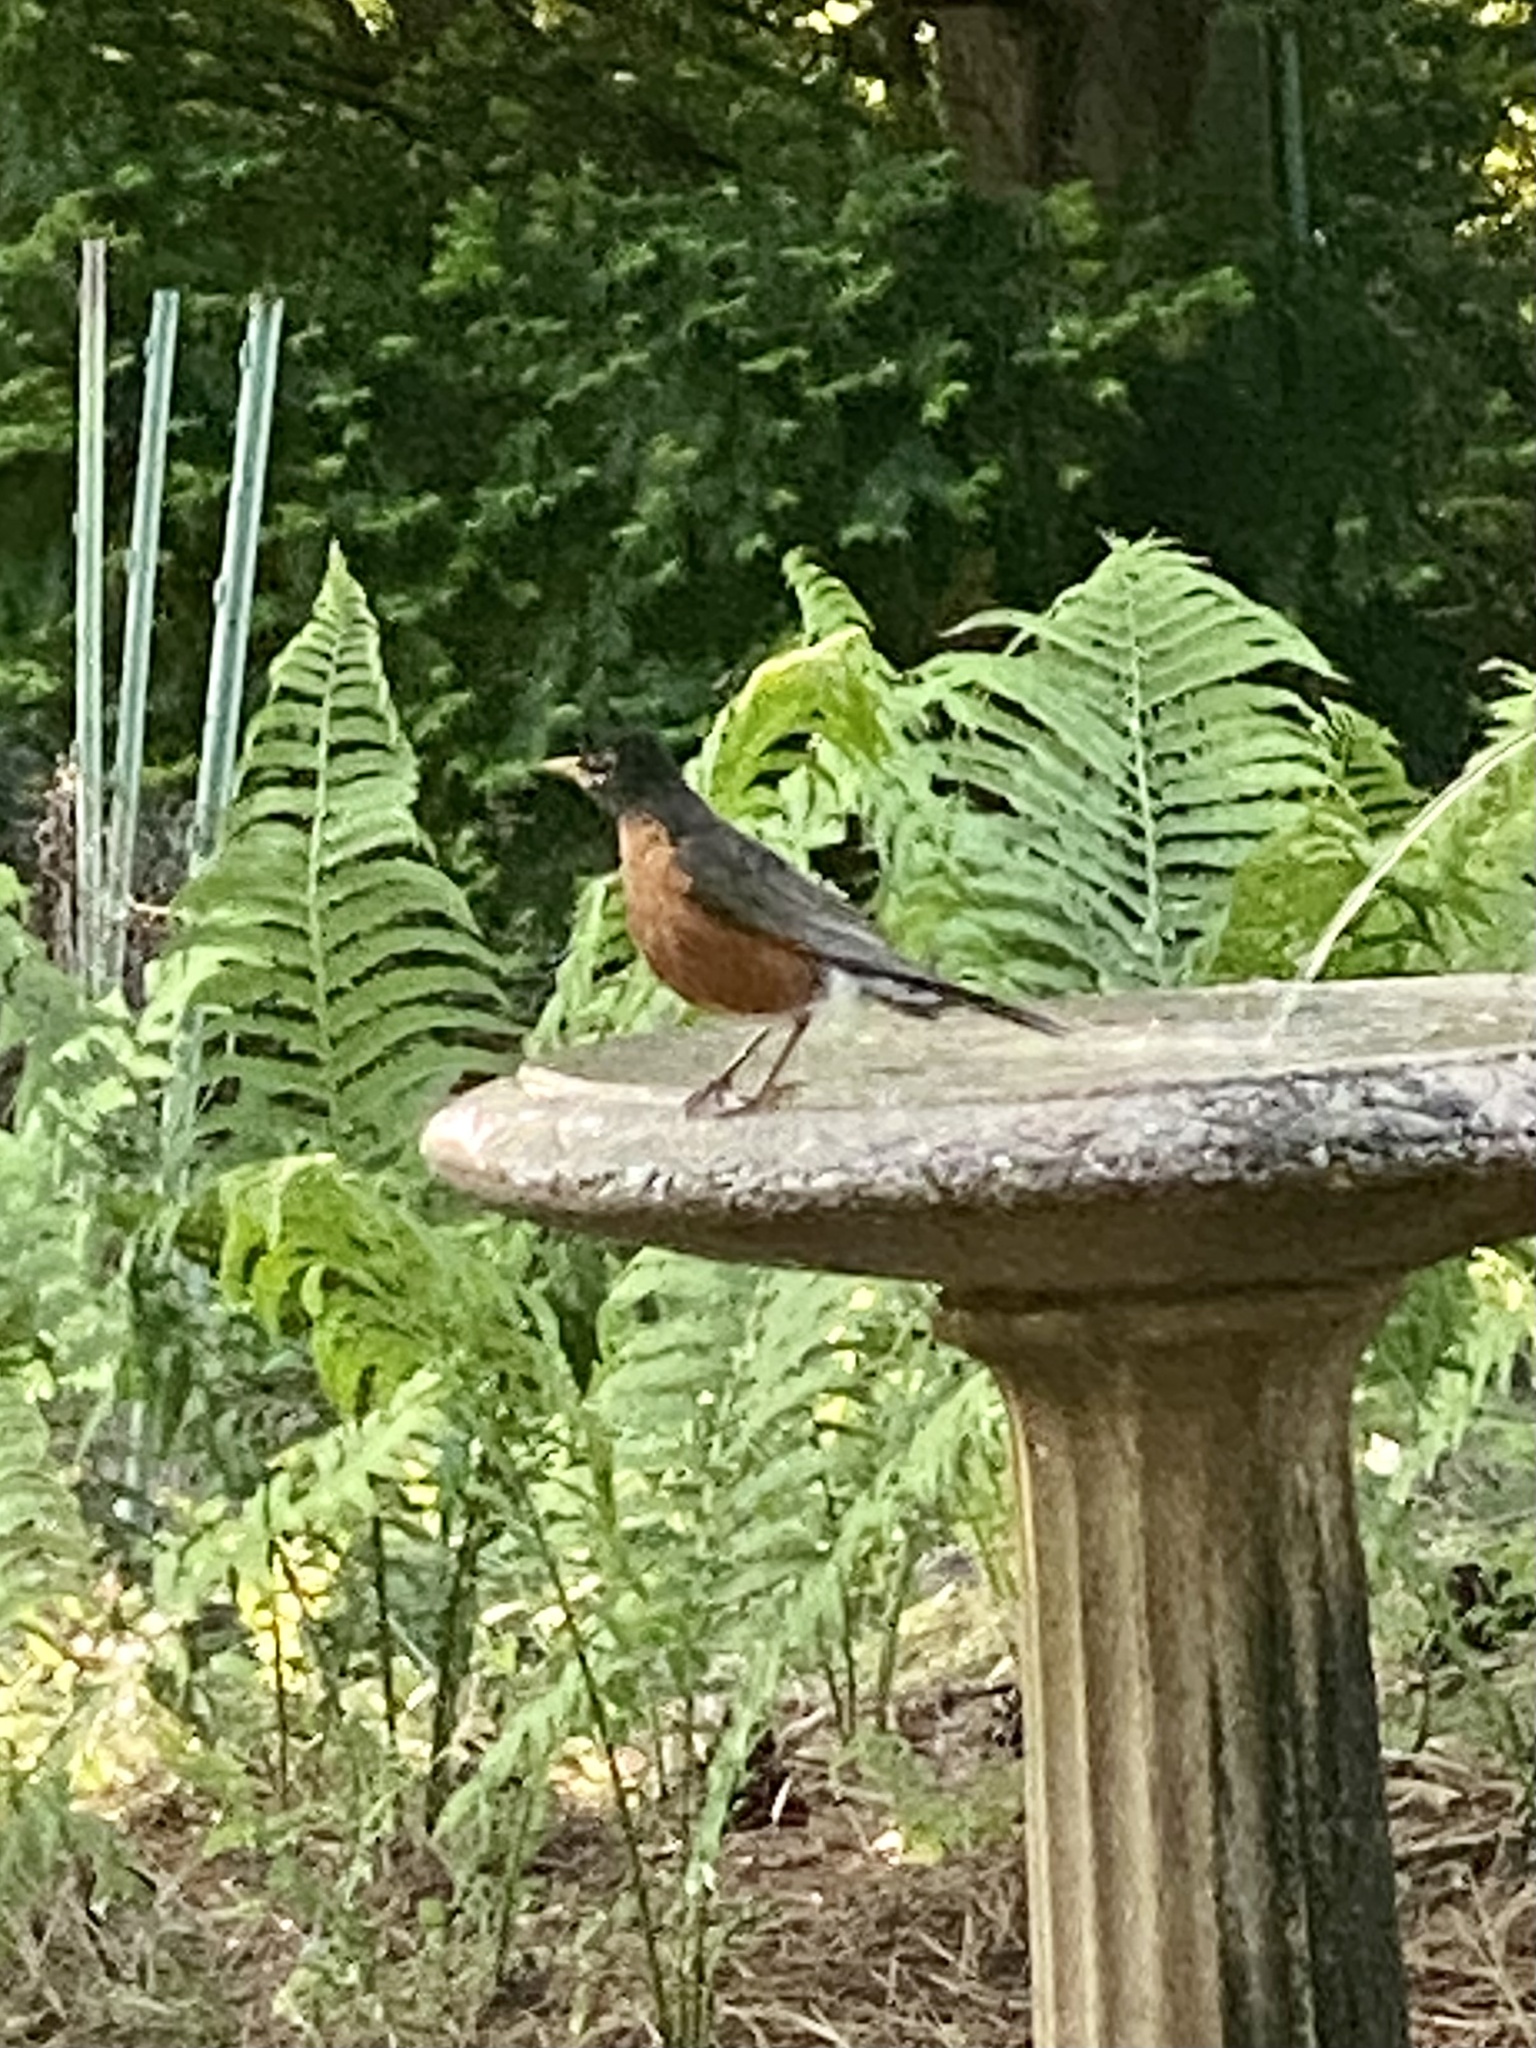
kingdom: Animalia
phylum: Chordata
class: Aves
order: Passeriformes
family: Turdidae
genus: Turdus
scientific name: Turdus migratorius
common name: American robin
